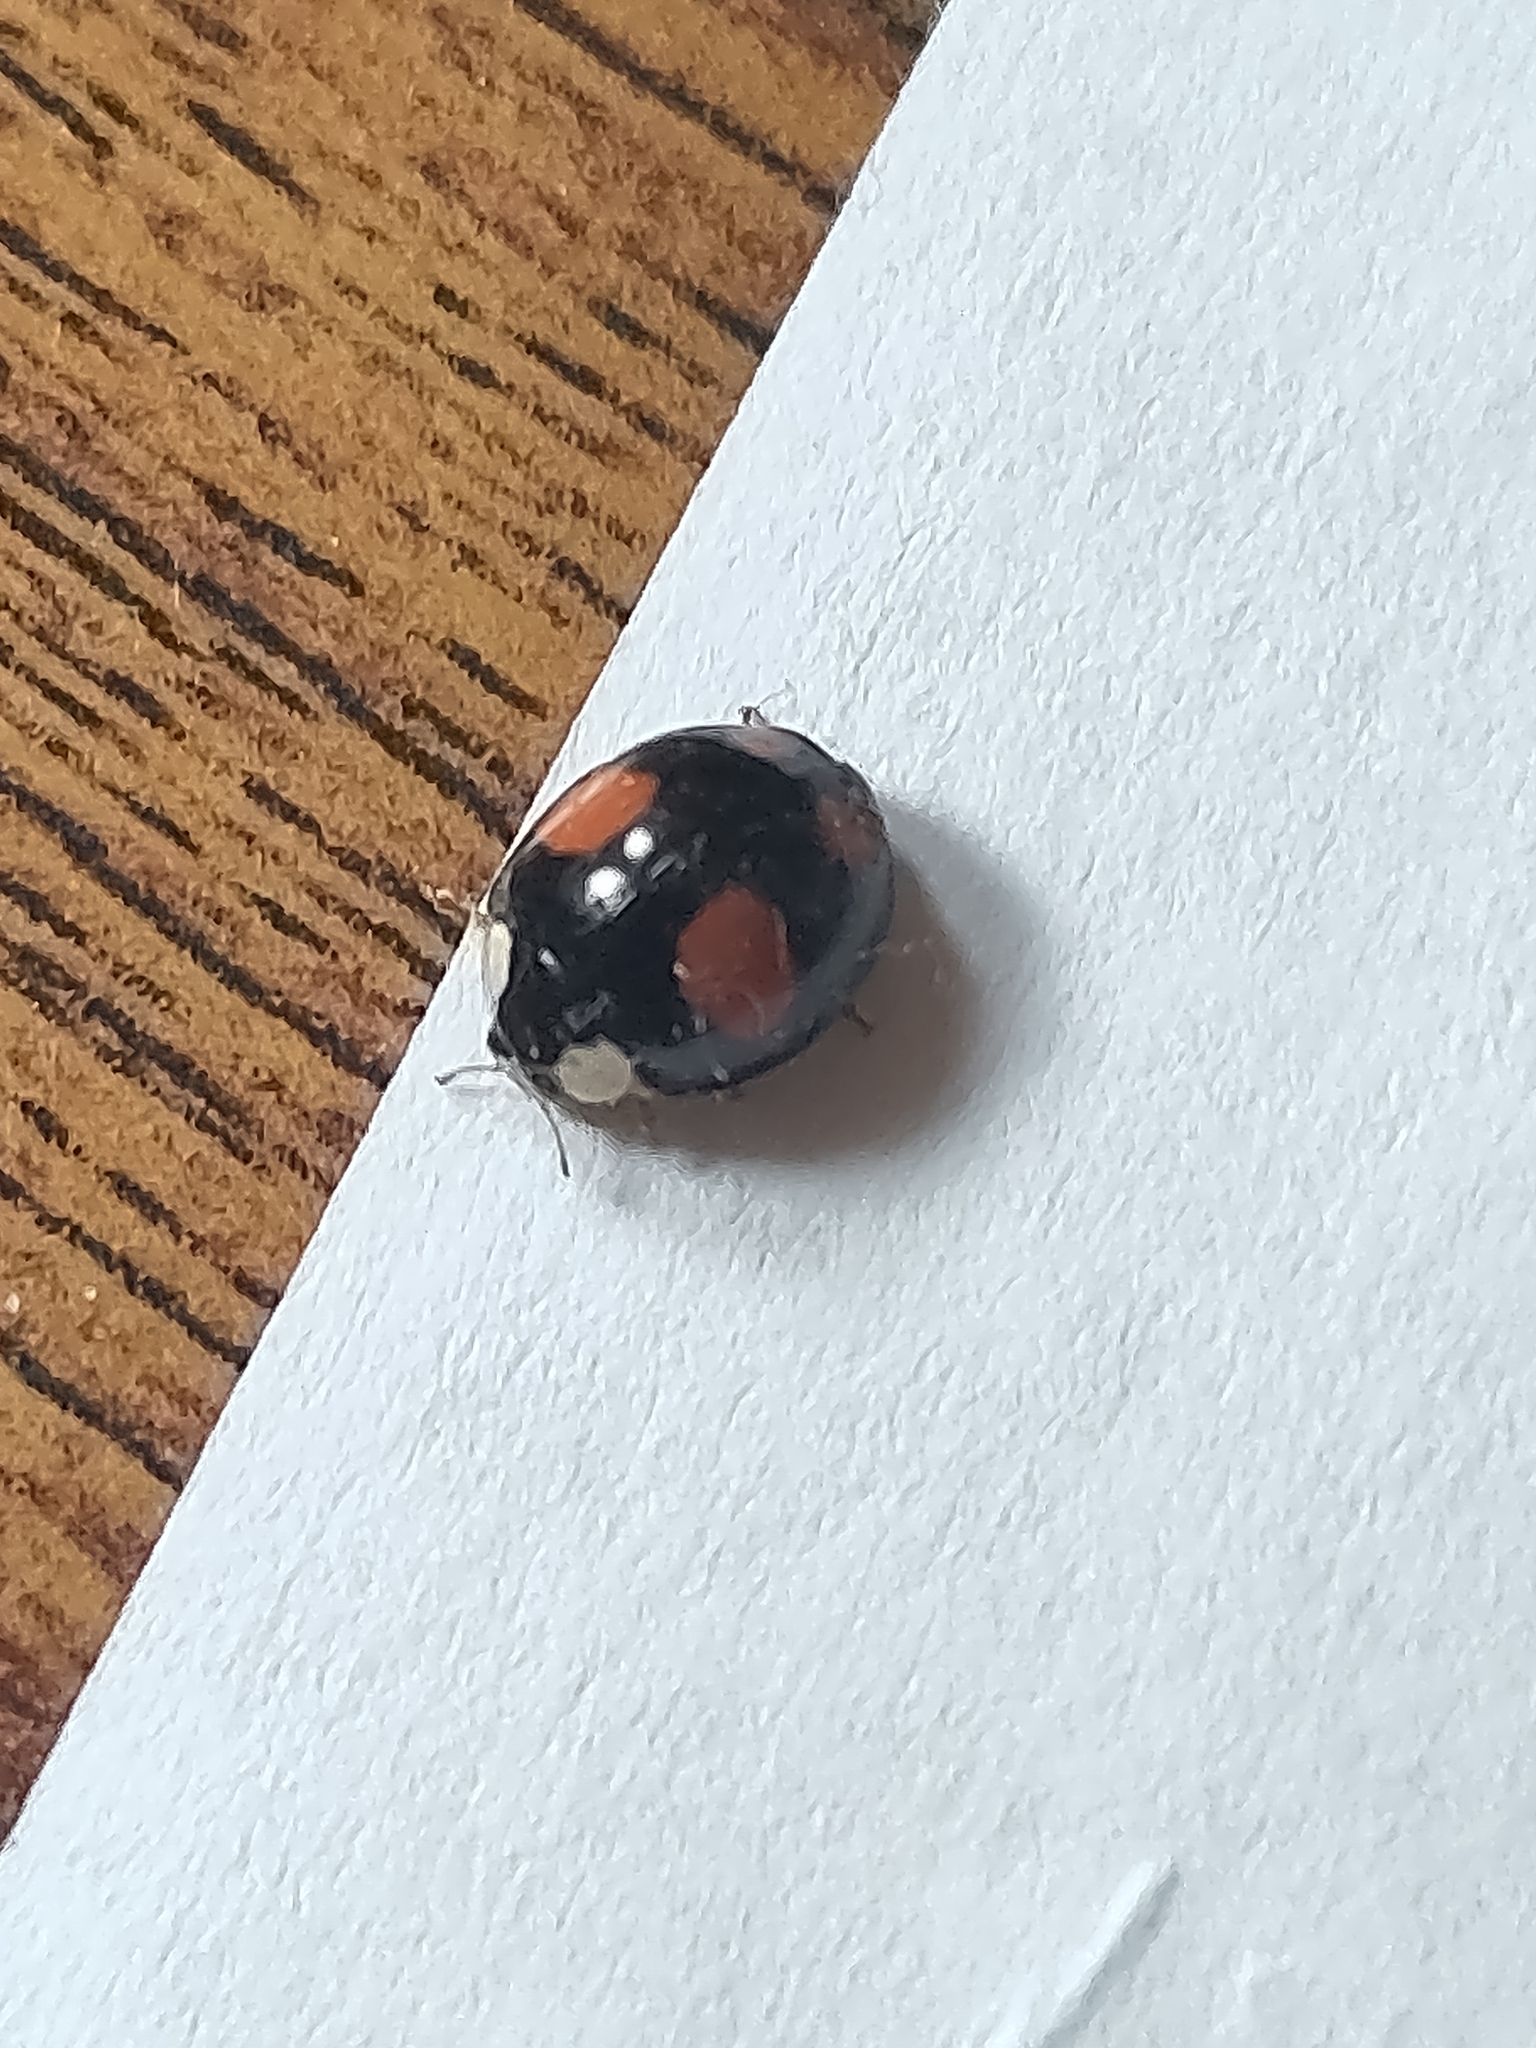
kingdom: Animalia
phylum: Arthropoda
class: Insecta
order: Coleoptera
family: Coccinellidae
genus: Harmonia
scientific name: Harmonia axyridis
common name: Harlequin ladybird
